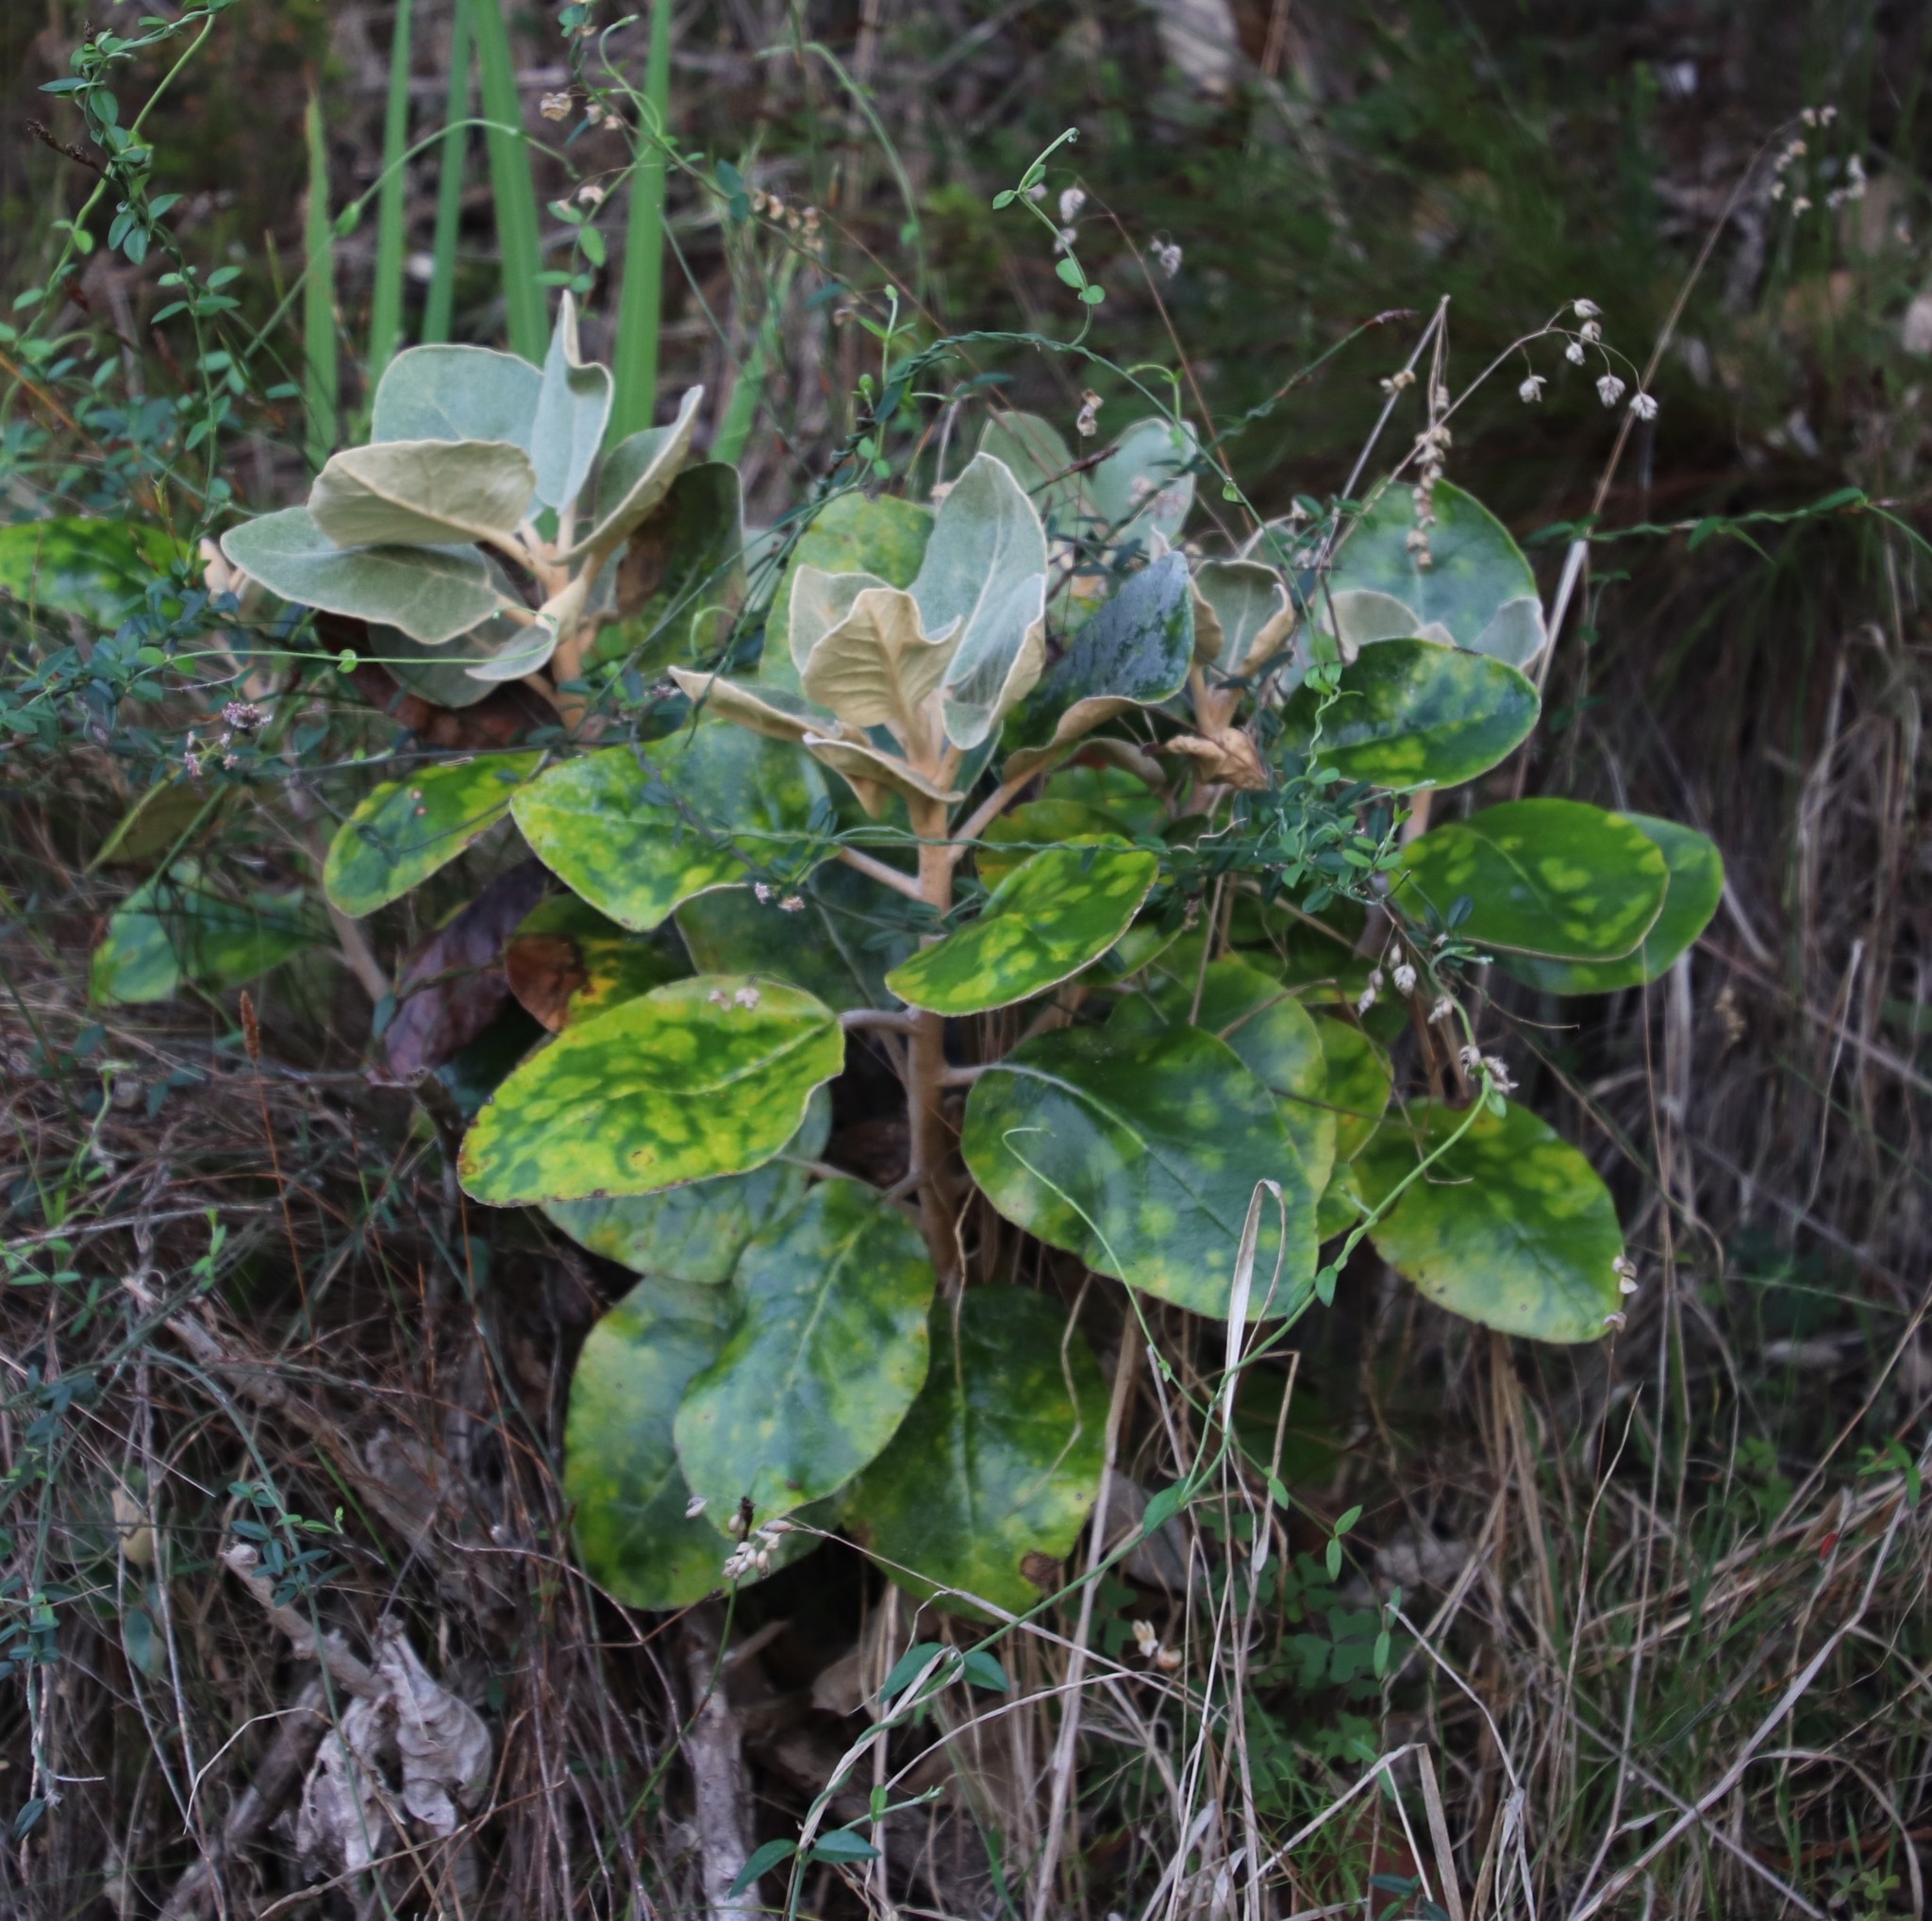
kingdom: Plantae
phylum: Tracheophyta
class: Magnoliopsida
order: Asterales
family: Asteraceae
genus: Capelio
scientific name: Capelio tabularis
